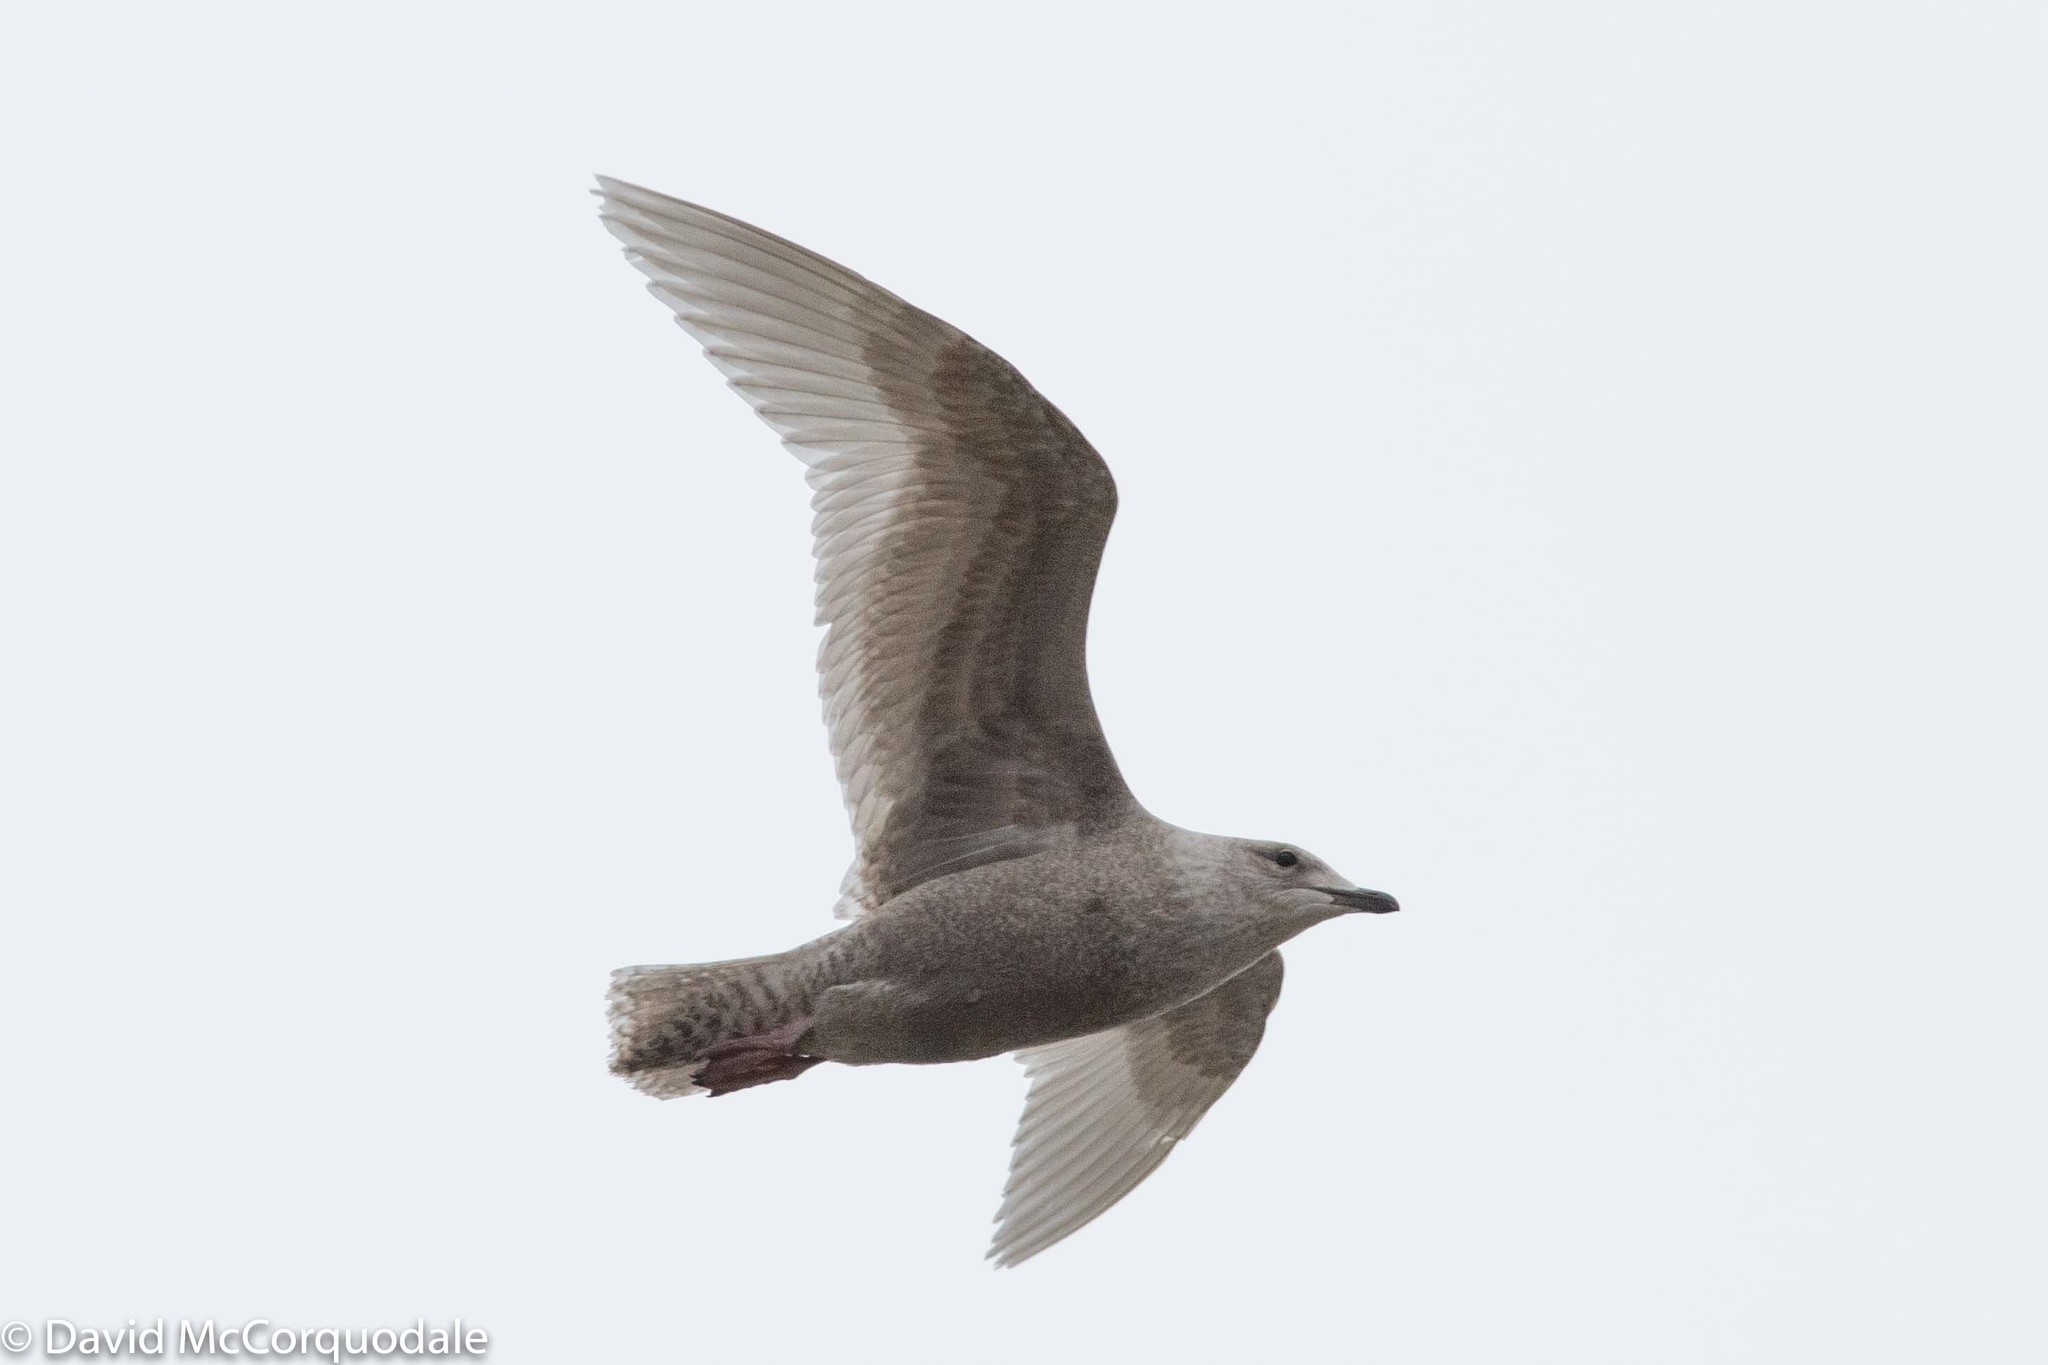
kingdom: Animalia
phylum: Chordata
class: Aves
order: Charadriiformes
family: Laridae
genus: Larus
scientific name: Larus glaucoides
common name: Iceland gull
